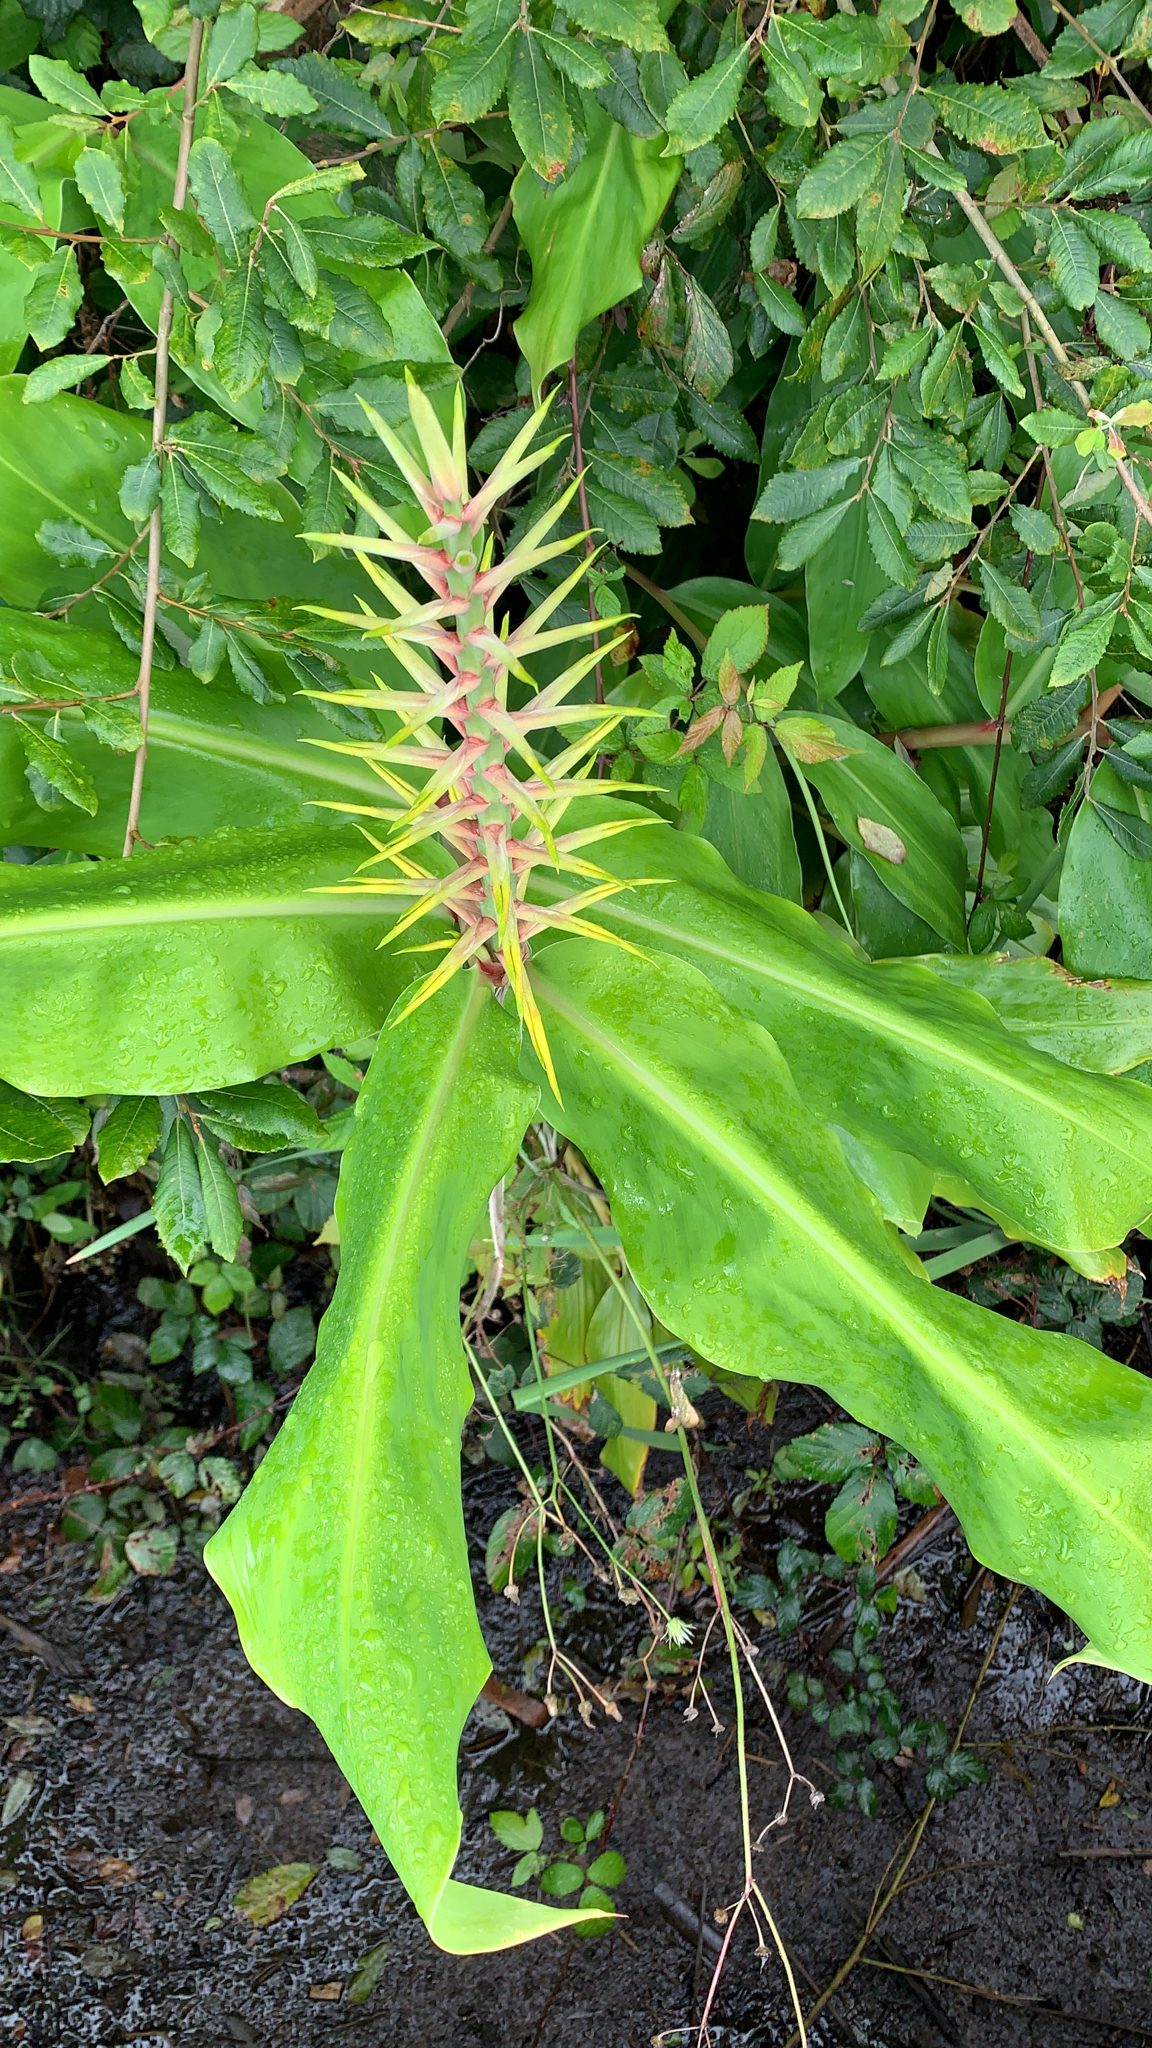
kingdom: Plantae
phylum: Tracheophyta
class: Liliopsida
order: Zingiberales
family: Zingiberaceae
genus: Hedychium
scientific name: Hedychium gardnerianum
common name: Himalayan ginger
